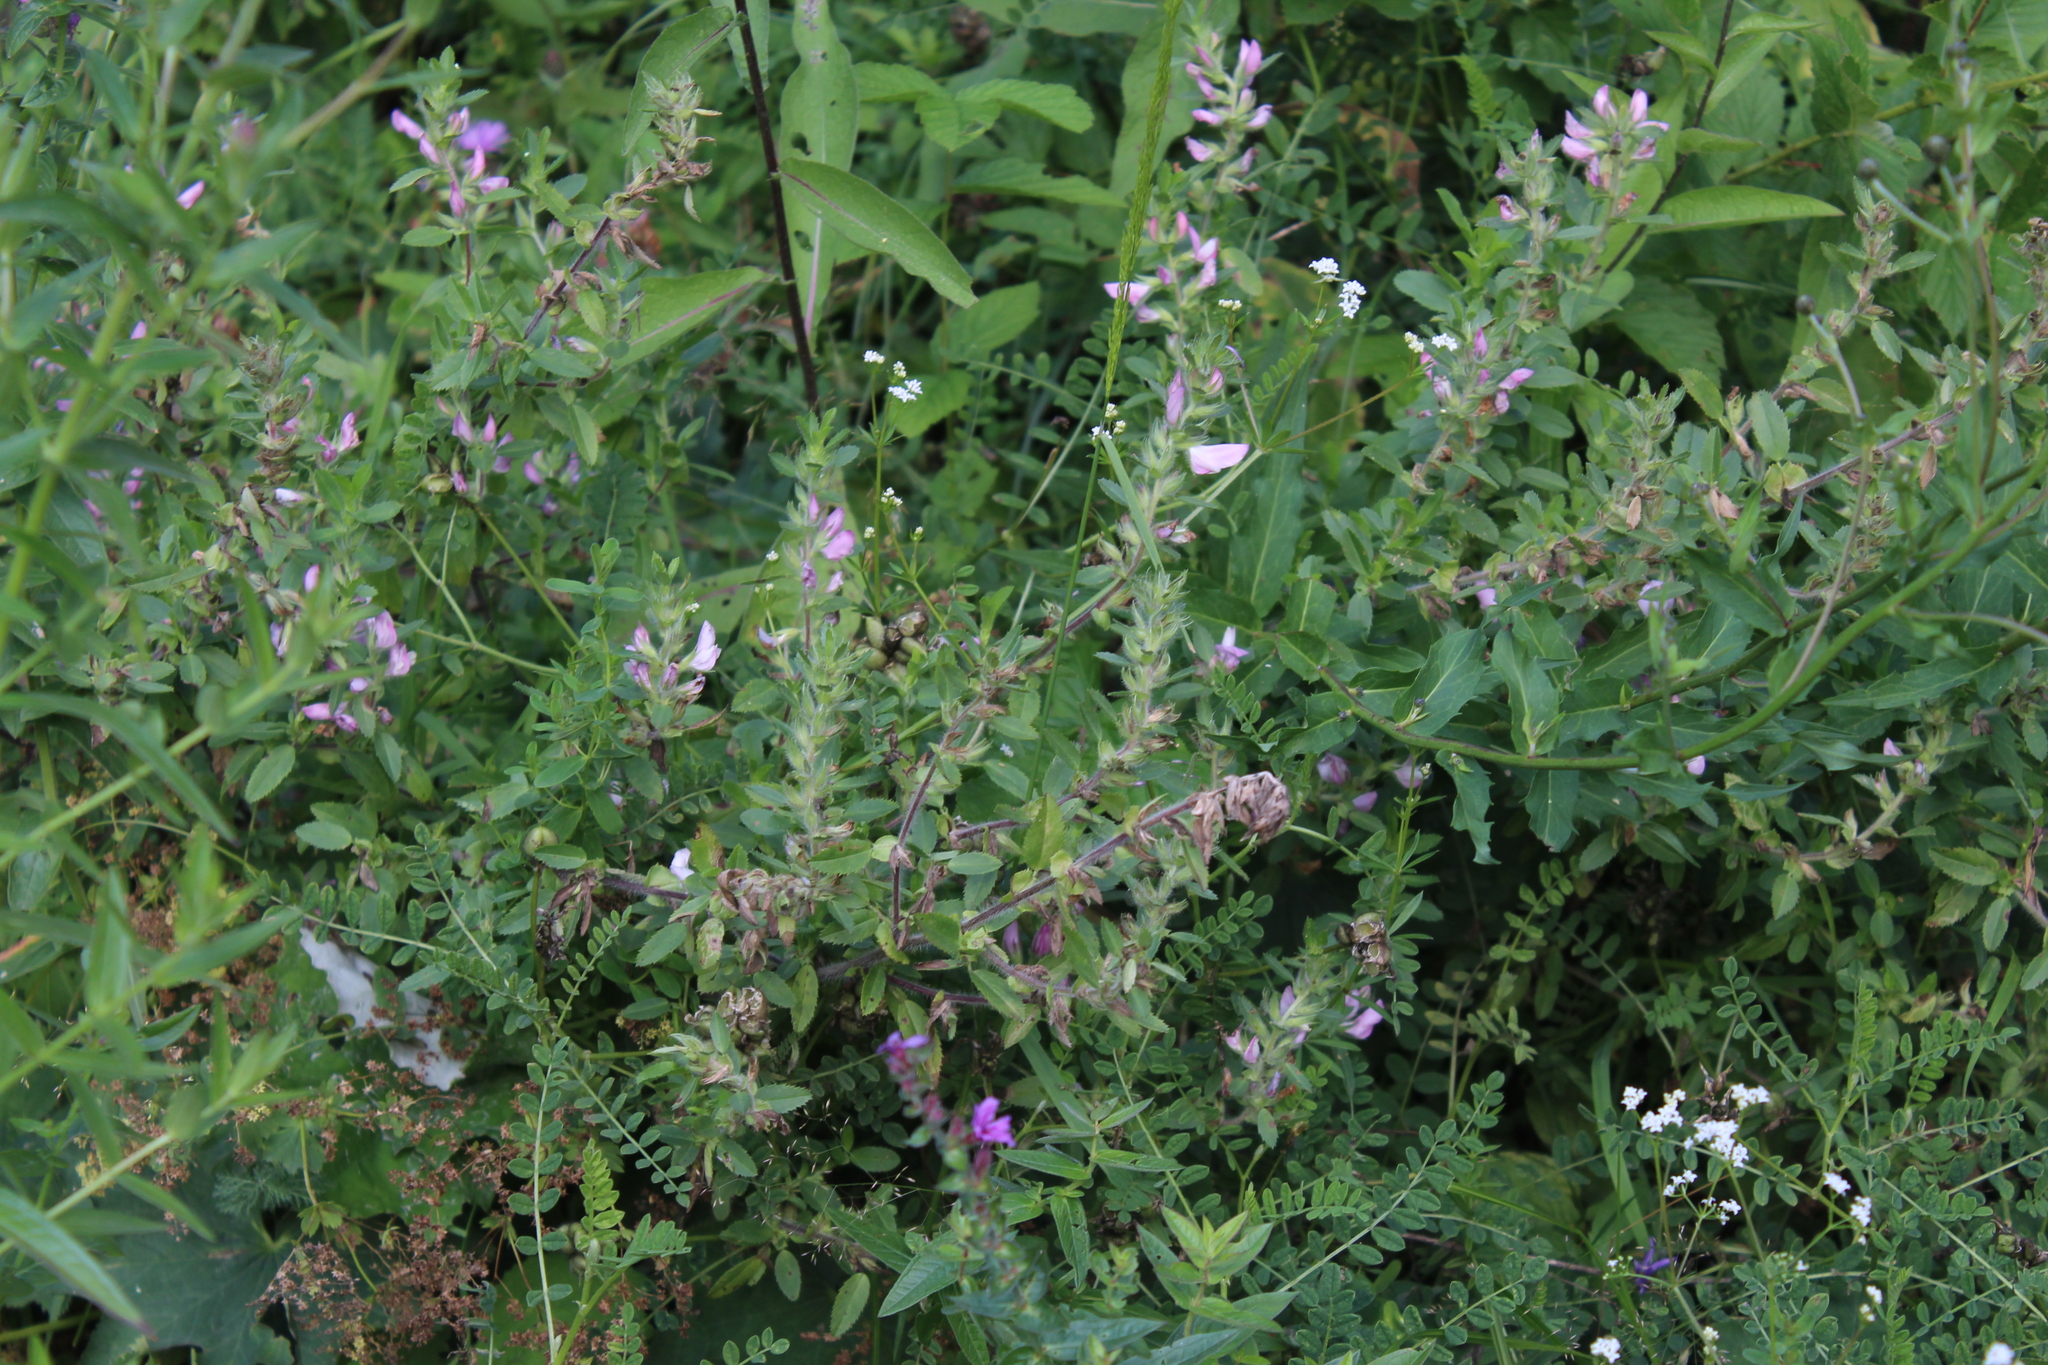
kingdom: Plantae
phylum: Tracheophyta
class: Magnoliopsida
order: Fabales
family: Fabaceae
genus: Ononis
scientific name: Ononis arvensis
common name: Field restharrow
